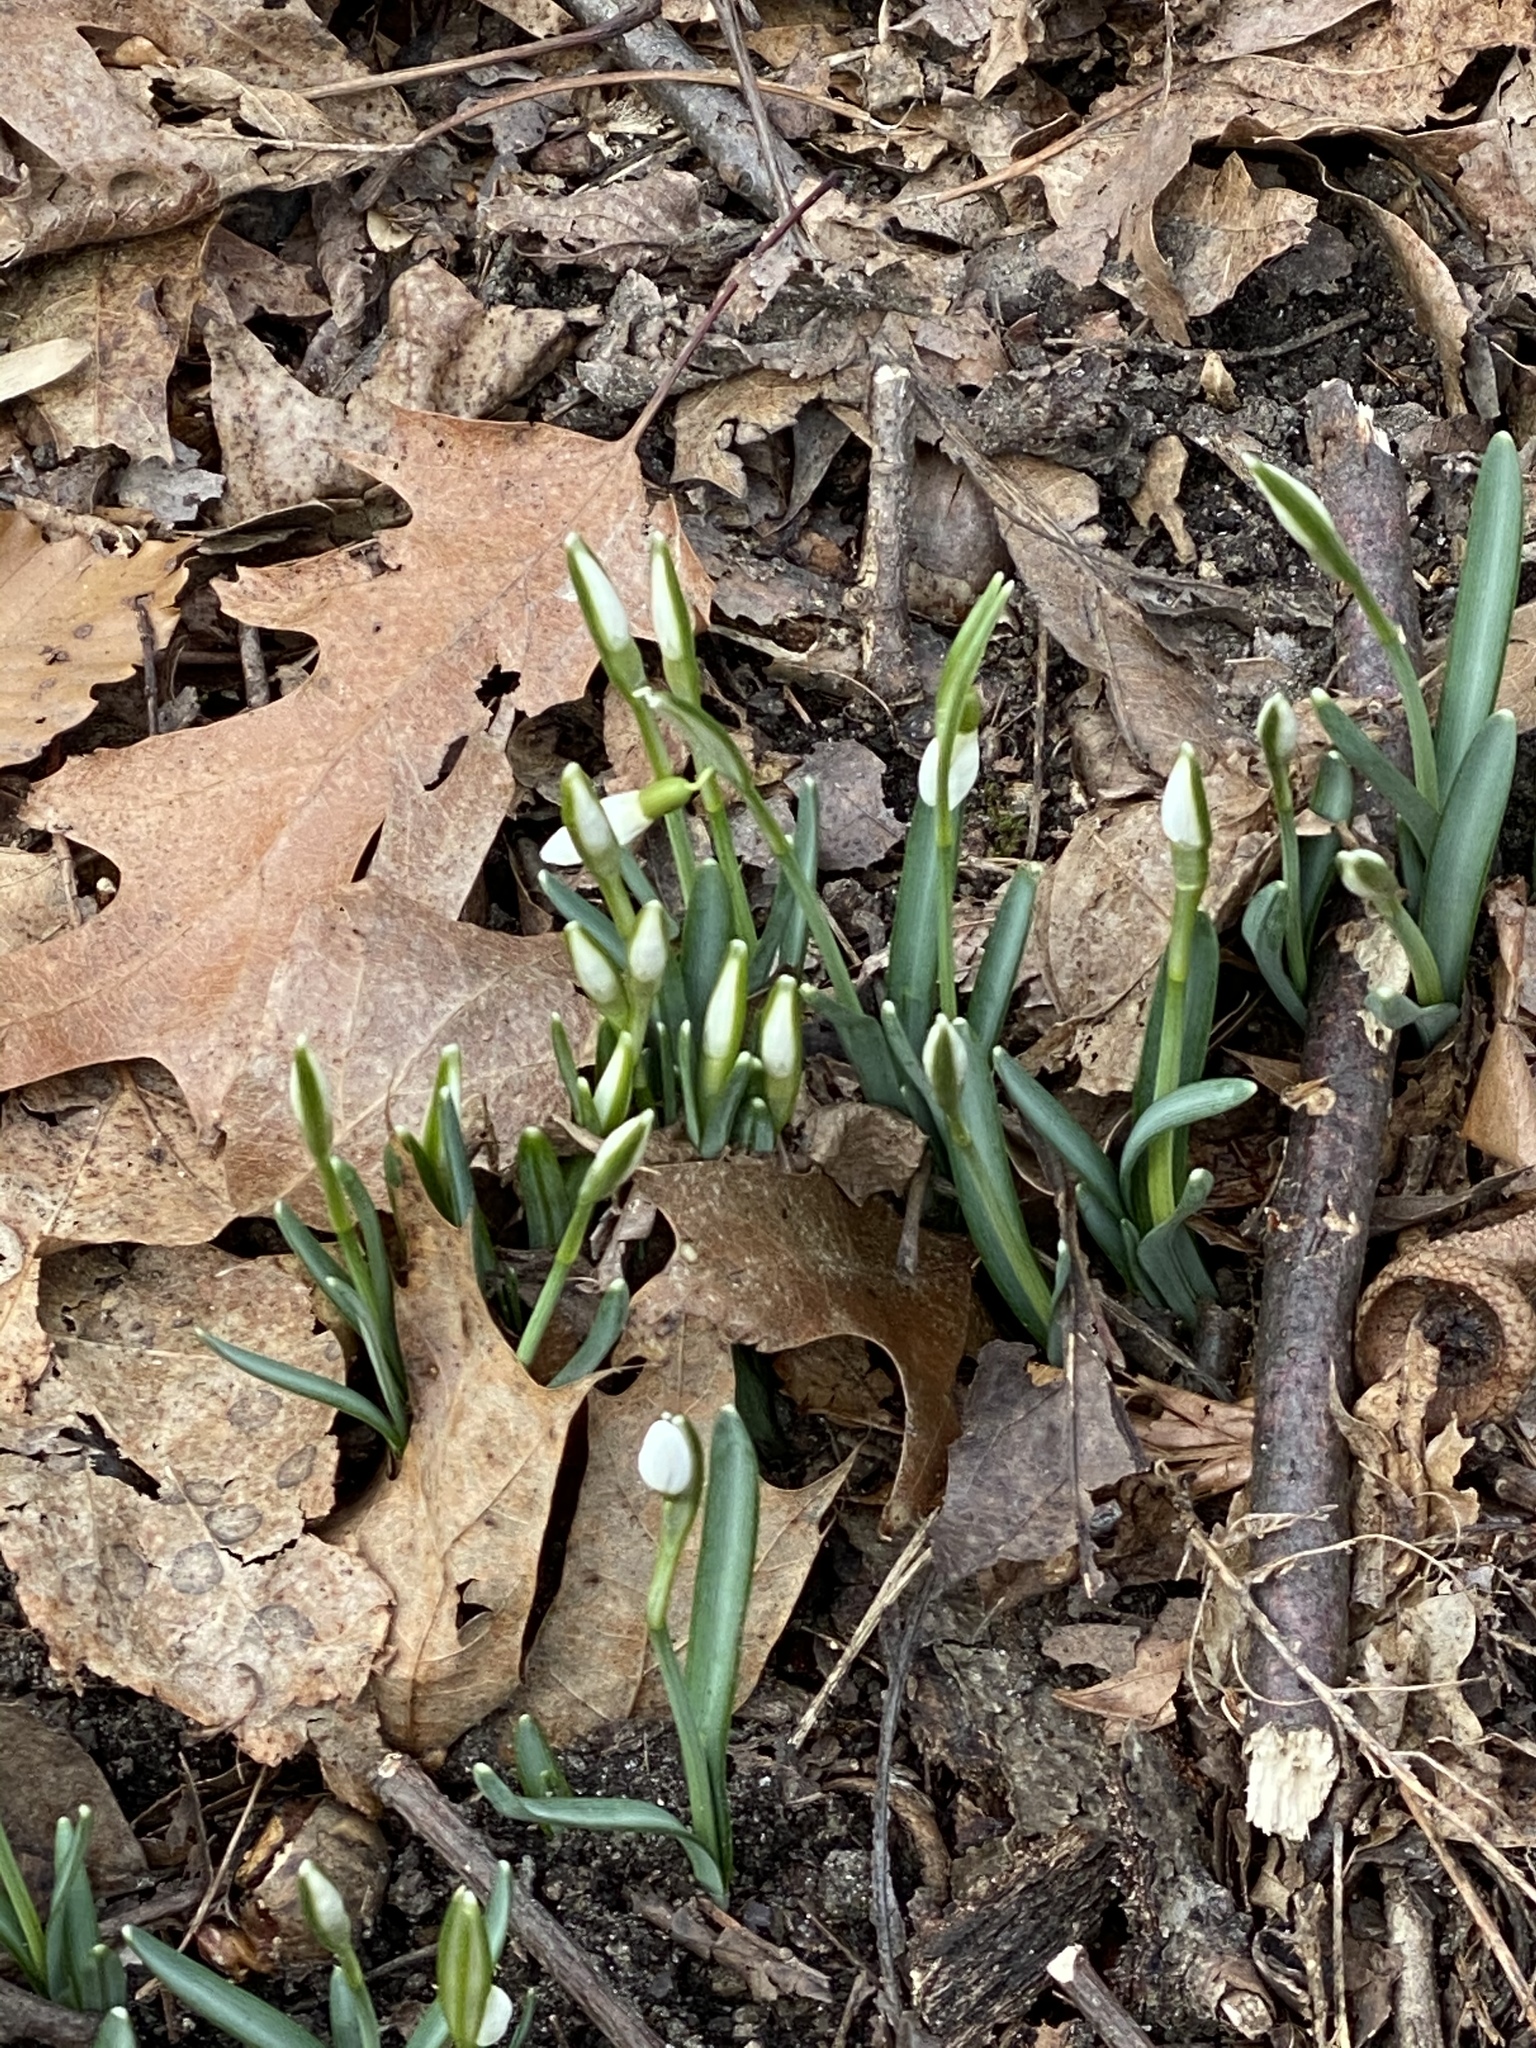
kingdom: Plantae
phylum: Tracheophyta
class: Liliopsida
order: Asparagales
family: Amaryllidaceae
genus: Galanthus
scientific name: Galanthus nivalis
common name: Snowdrop
